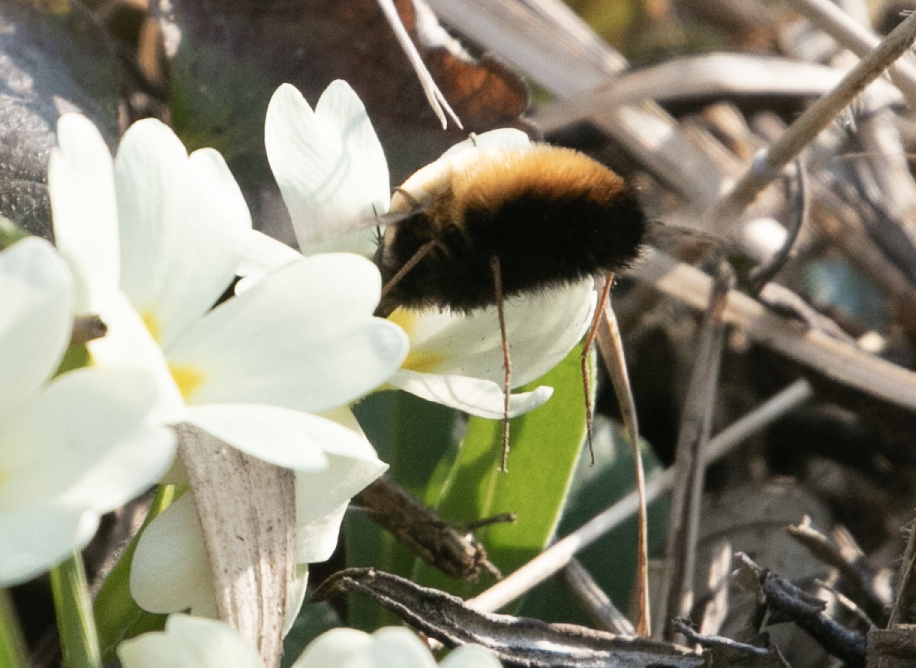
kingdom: Animalia
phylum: Arthropoda
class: Insecta
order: Diptera
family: Bombyliidae
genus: Bombylius
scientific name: Bombylius discolor
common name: Dotted bee-fly
